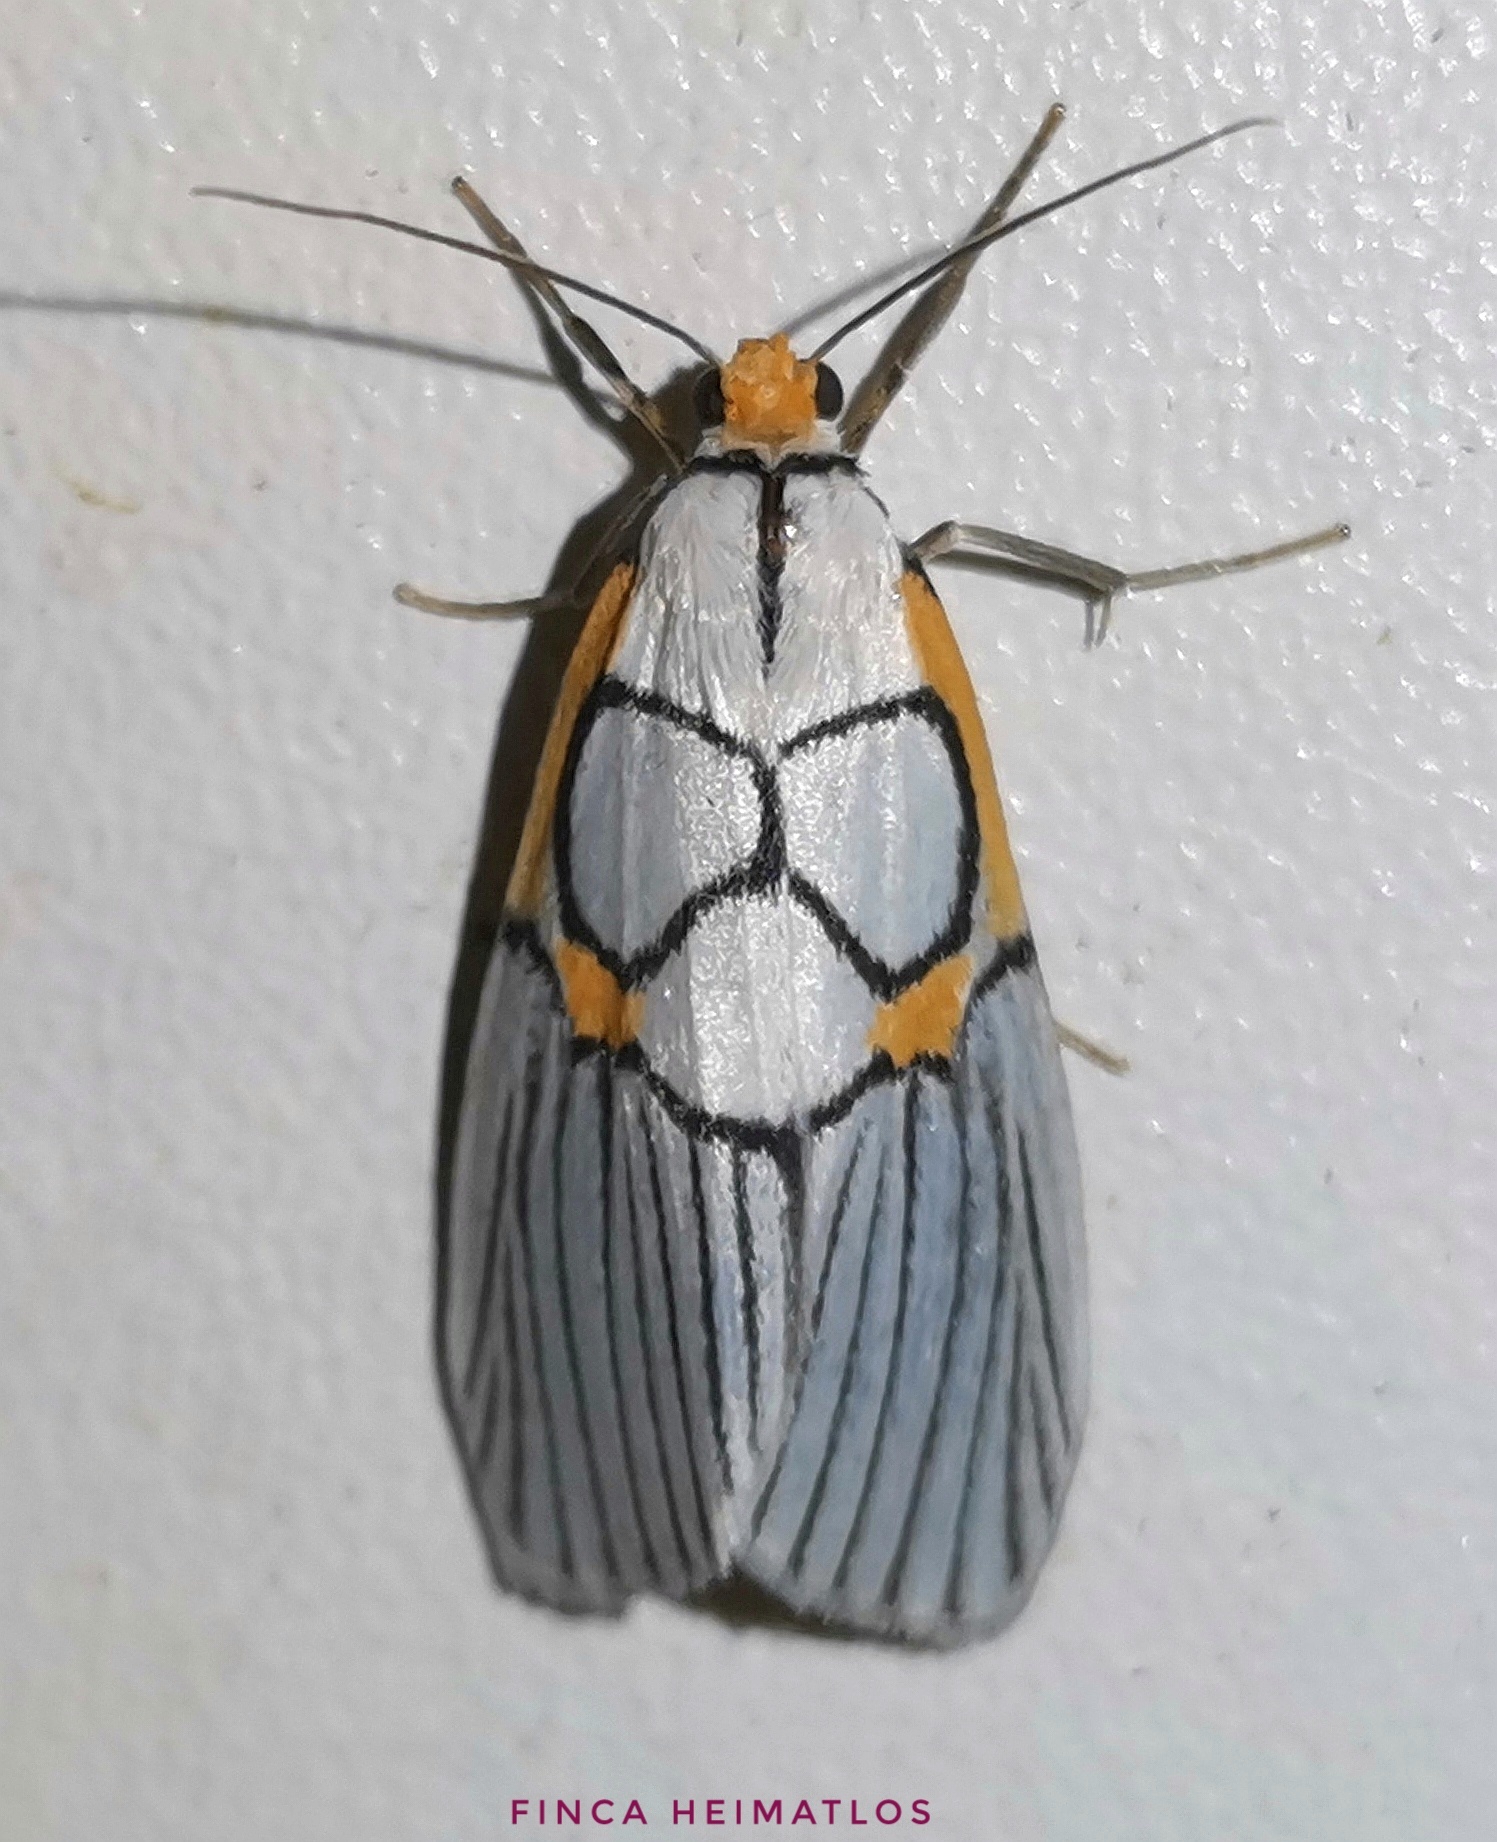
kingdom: Animalia
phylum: Arthropoda
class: Insecta
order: Lepidoptera
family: Notodontidae
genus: Scotura
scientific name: Scotura annulata
